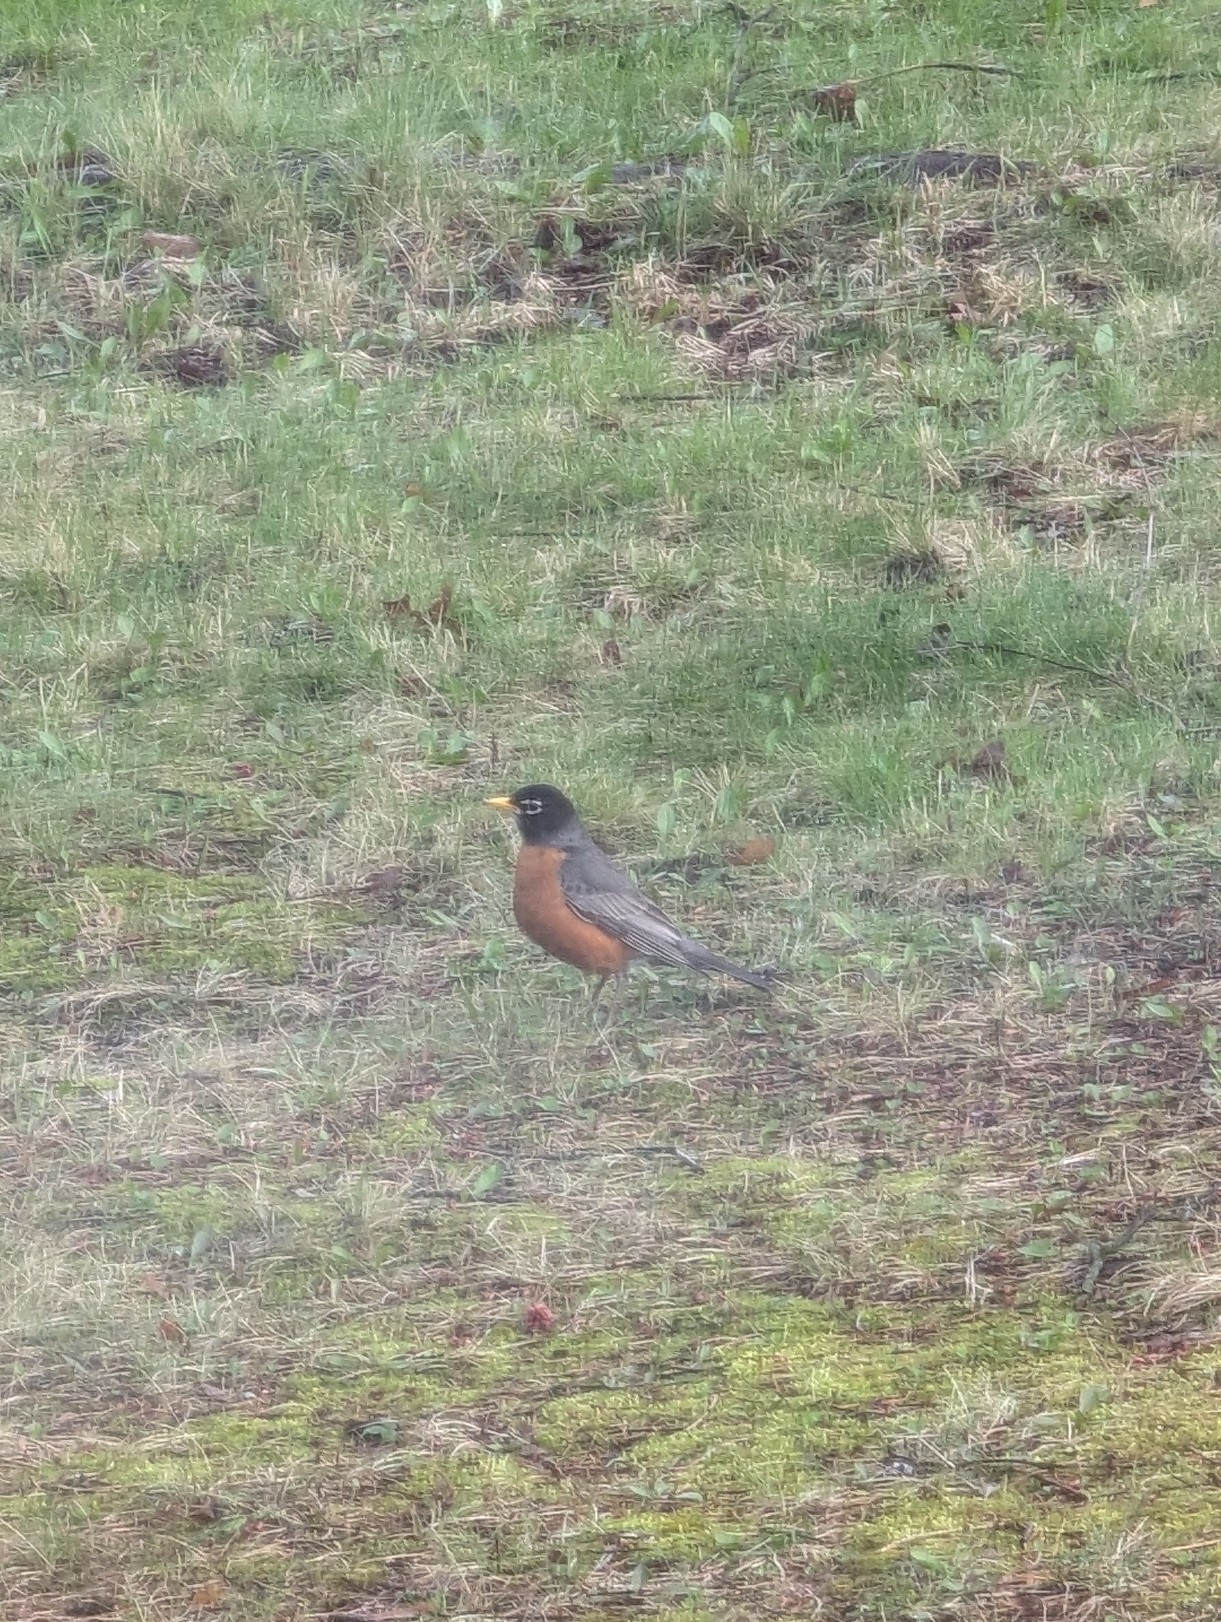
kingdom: Animalia
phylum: Chordata
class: Aves
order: Passeriformes
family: Turdidae
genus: Turdus
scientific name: Turdus migratorius
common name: American robin
